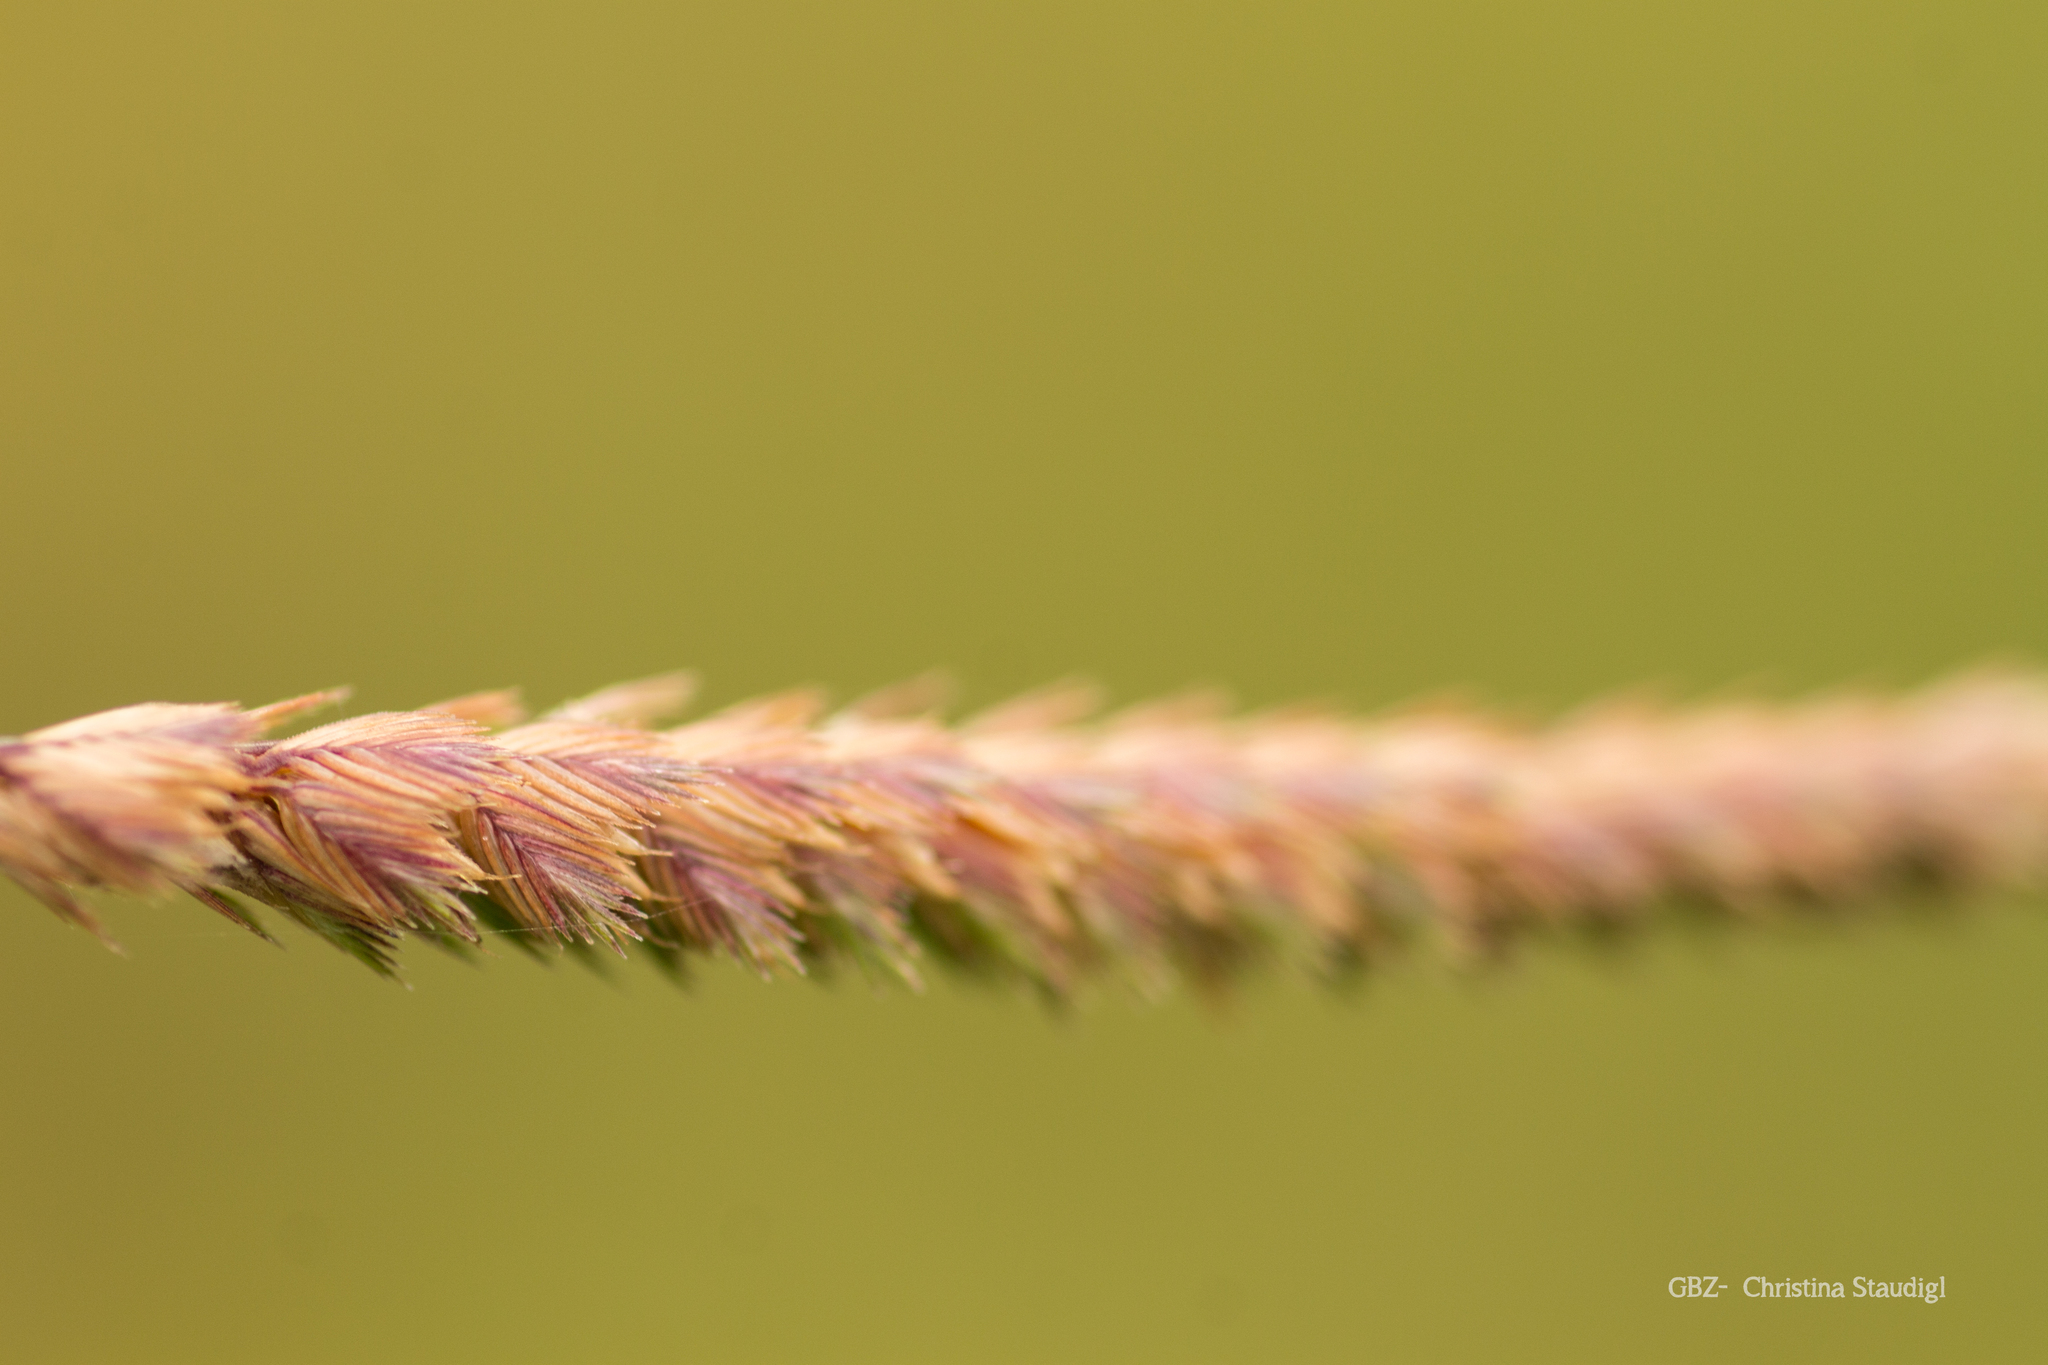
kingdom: Plantae
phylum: Tracheophyta
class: Liliopsida
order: Poales
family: Poaceae
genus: Cynosurus
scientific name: Cynosurus cristatus
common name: Crested dog's-tail
